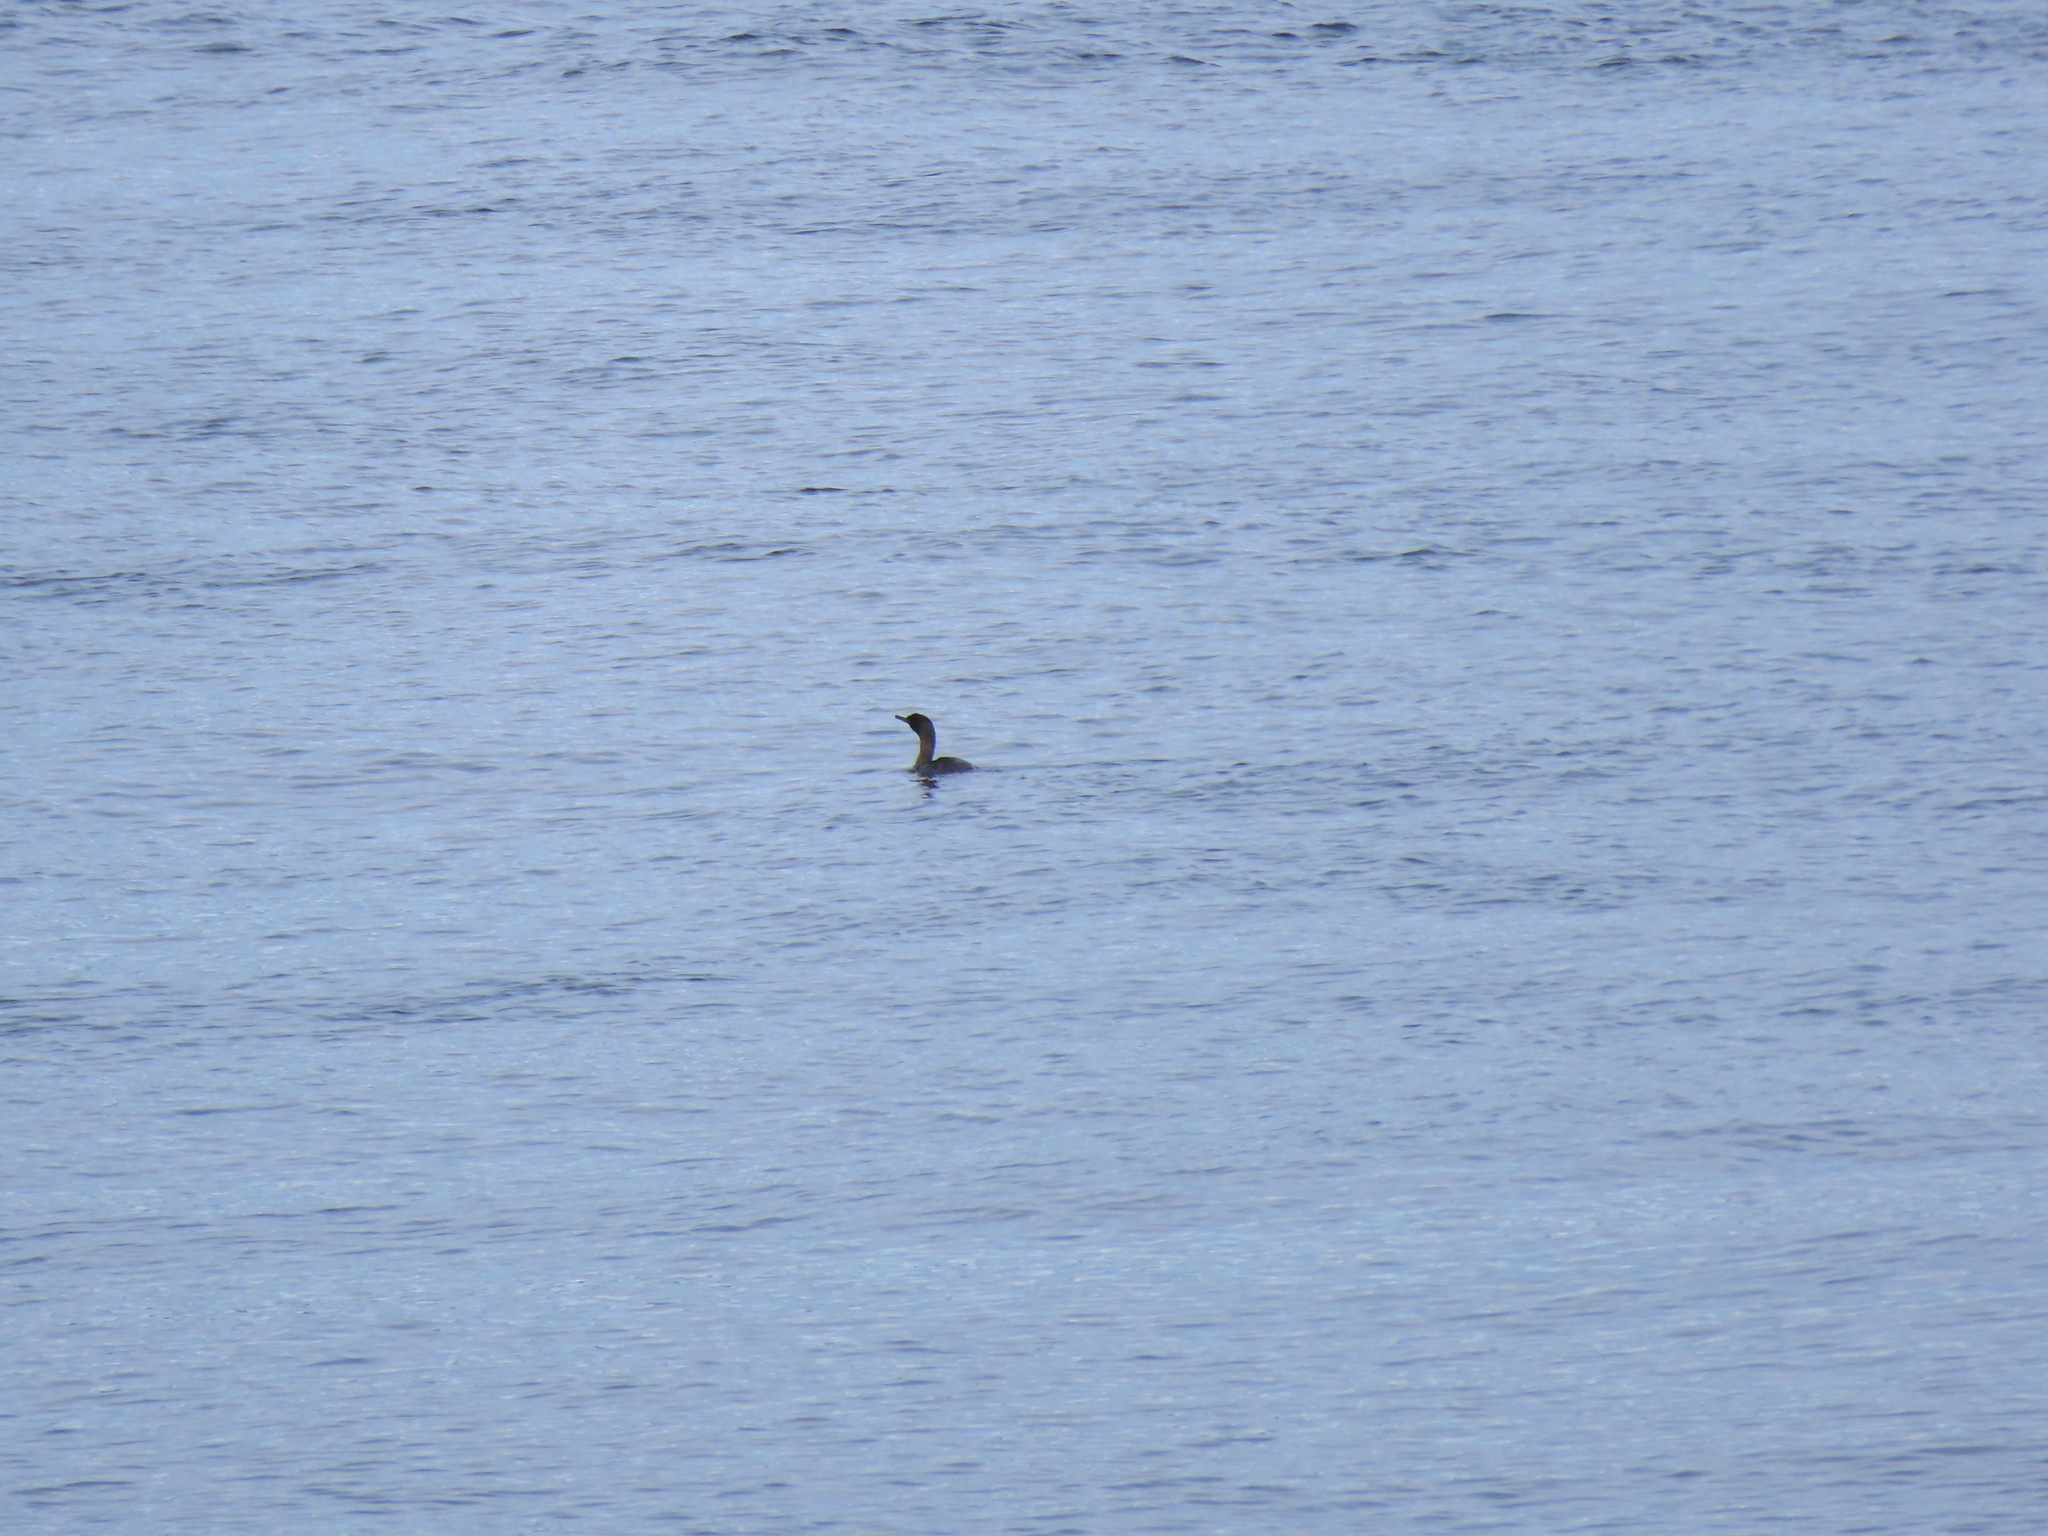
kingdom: Animalia
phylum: Chordata
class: Aves
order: Suliformes
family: Phalacrocoracidae
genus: Phalacrocorax
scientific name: Phalacrocorax pelagicus
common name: Pelagic cormorant
